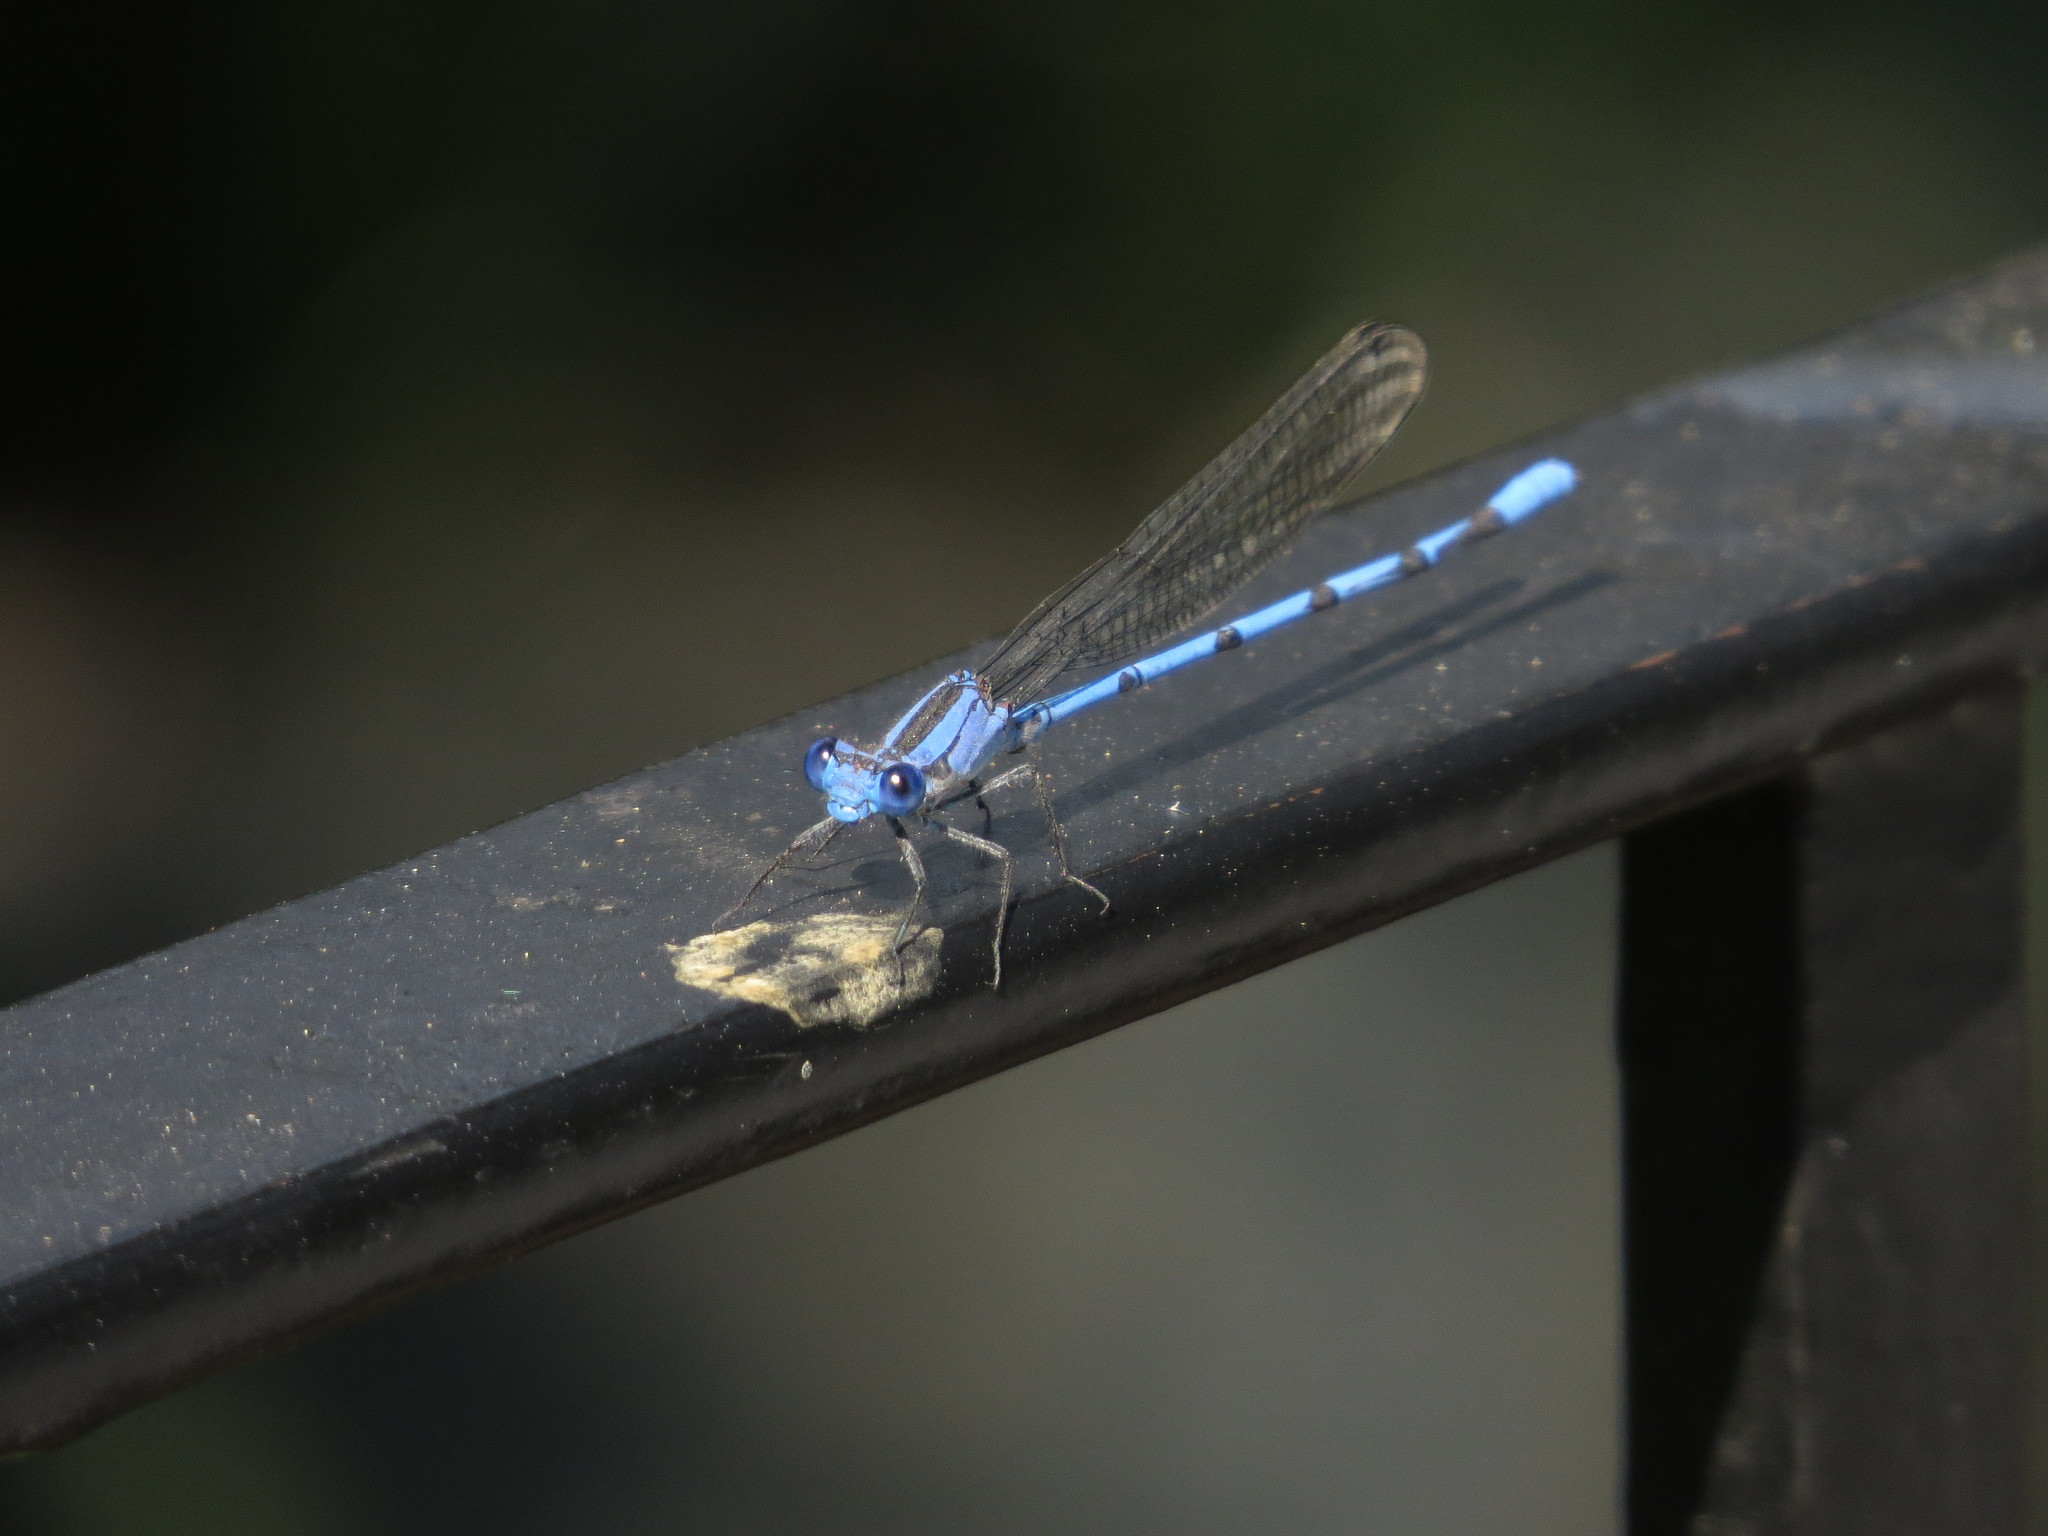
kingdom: Animalia
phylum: Arthropoda
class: Insecta
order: Odonata
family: Coenagrionidae
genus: Argia
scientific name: Argia lacrimans
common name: Sierra madre dancer
